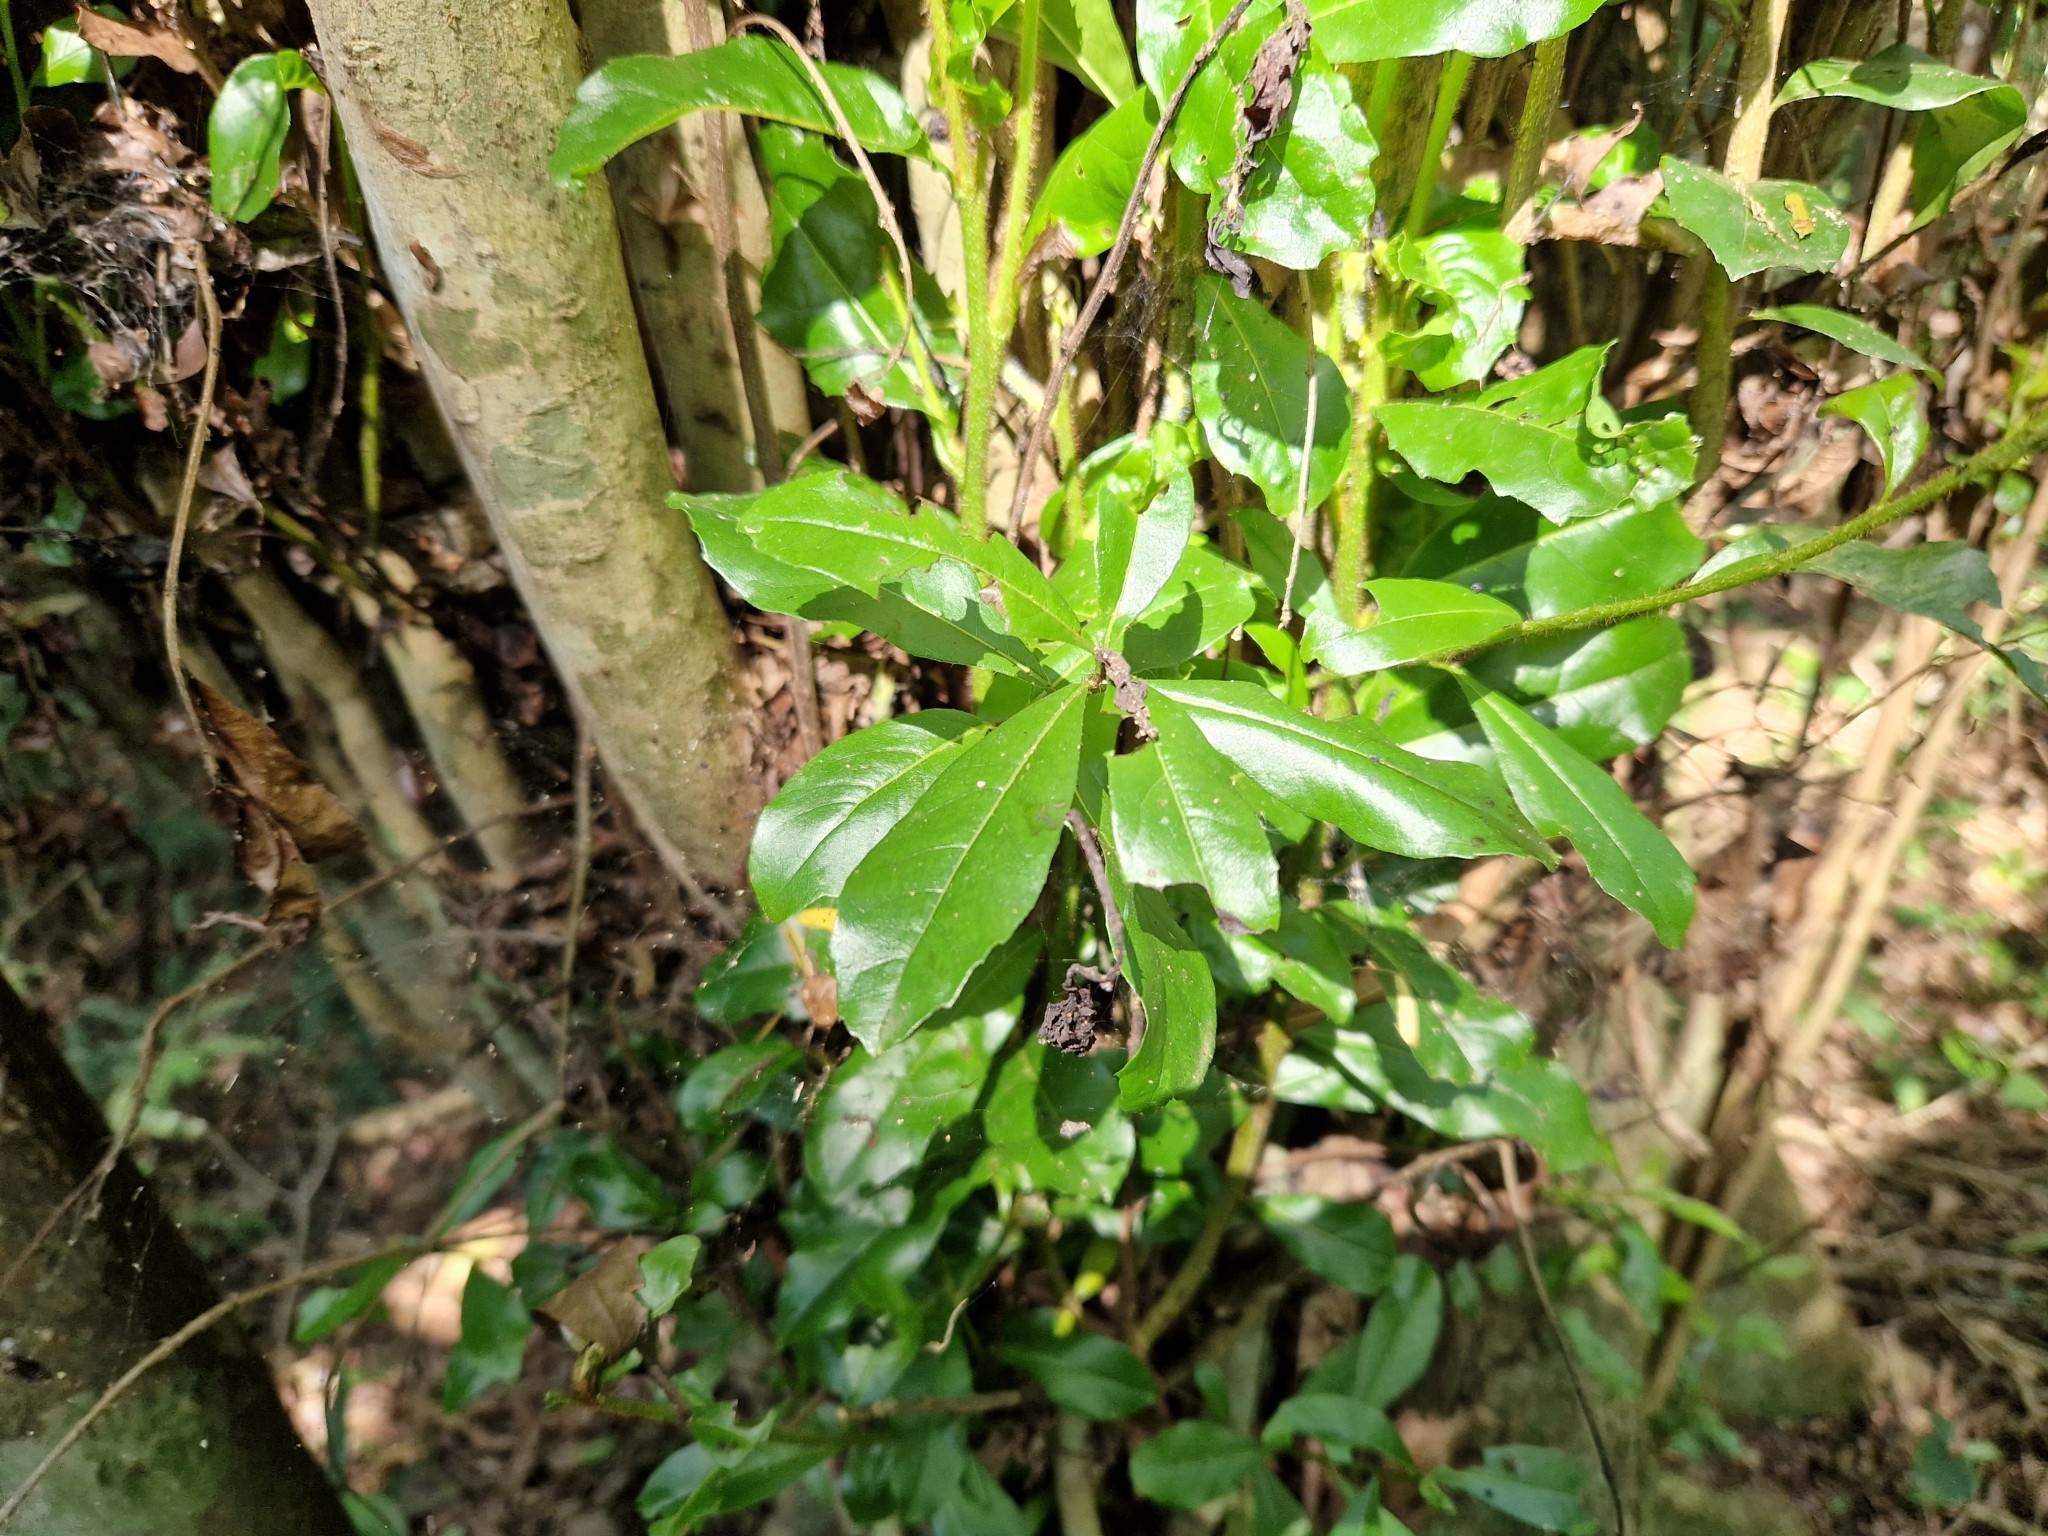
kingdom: Plantae
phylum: Tracheophyta
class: Magnoliopsida
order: Boraginales
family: Cordiaceae
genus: Cordia
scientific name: Cordia americana
